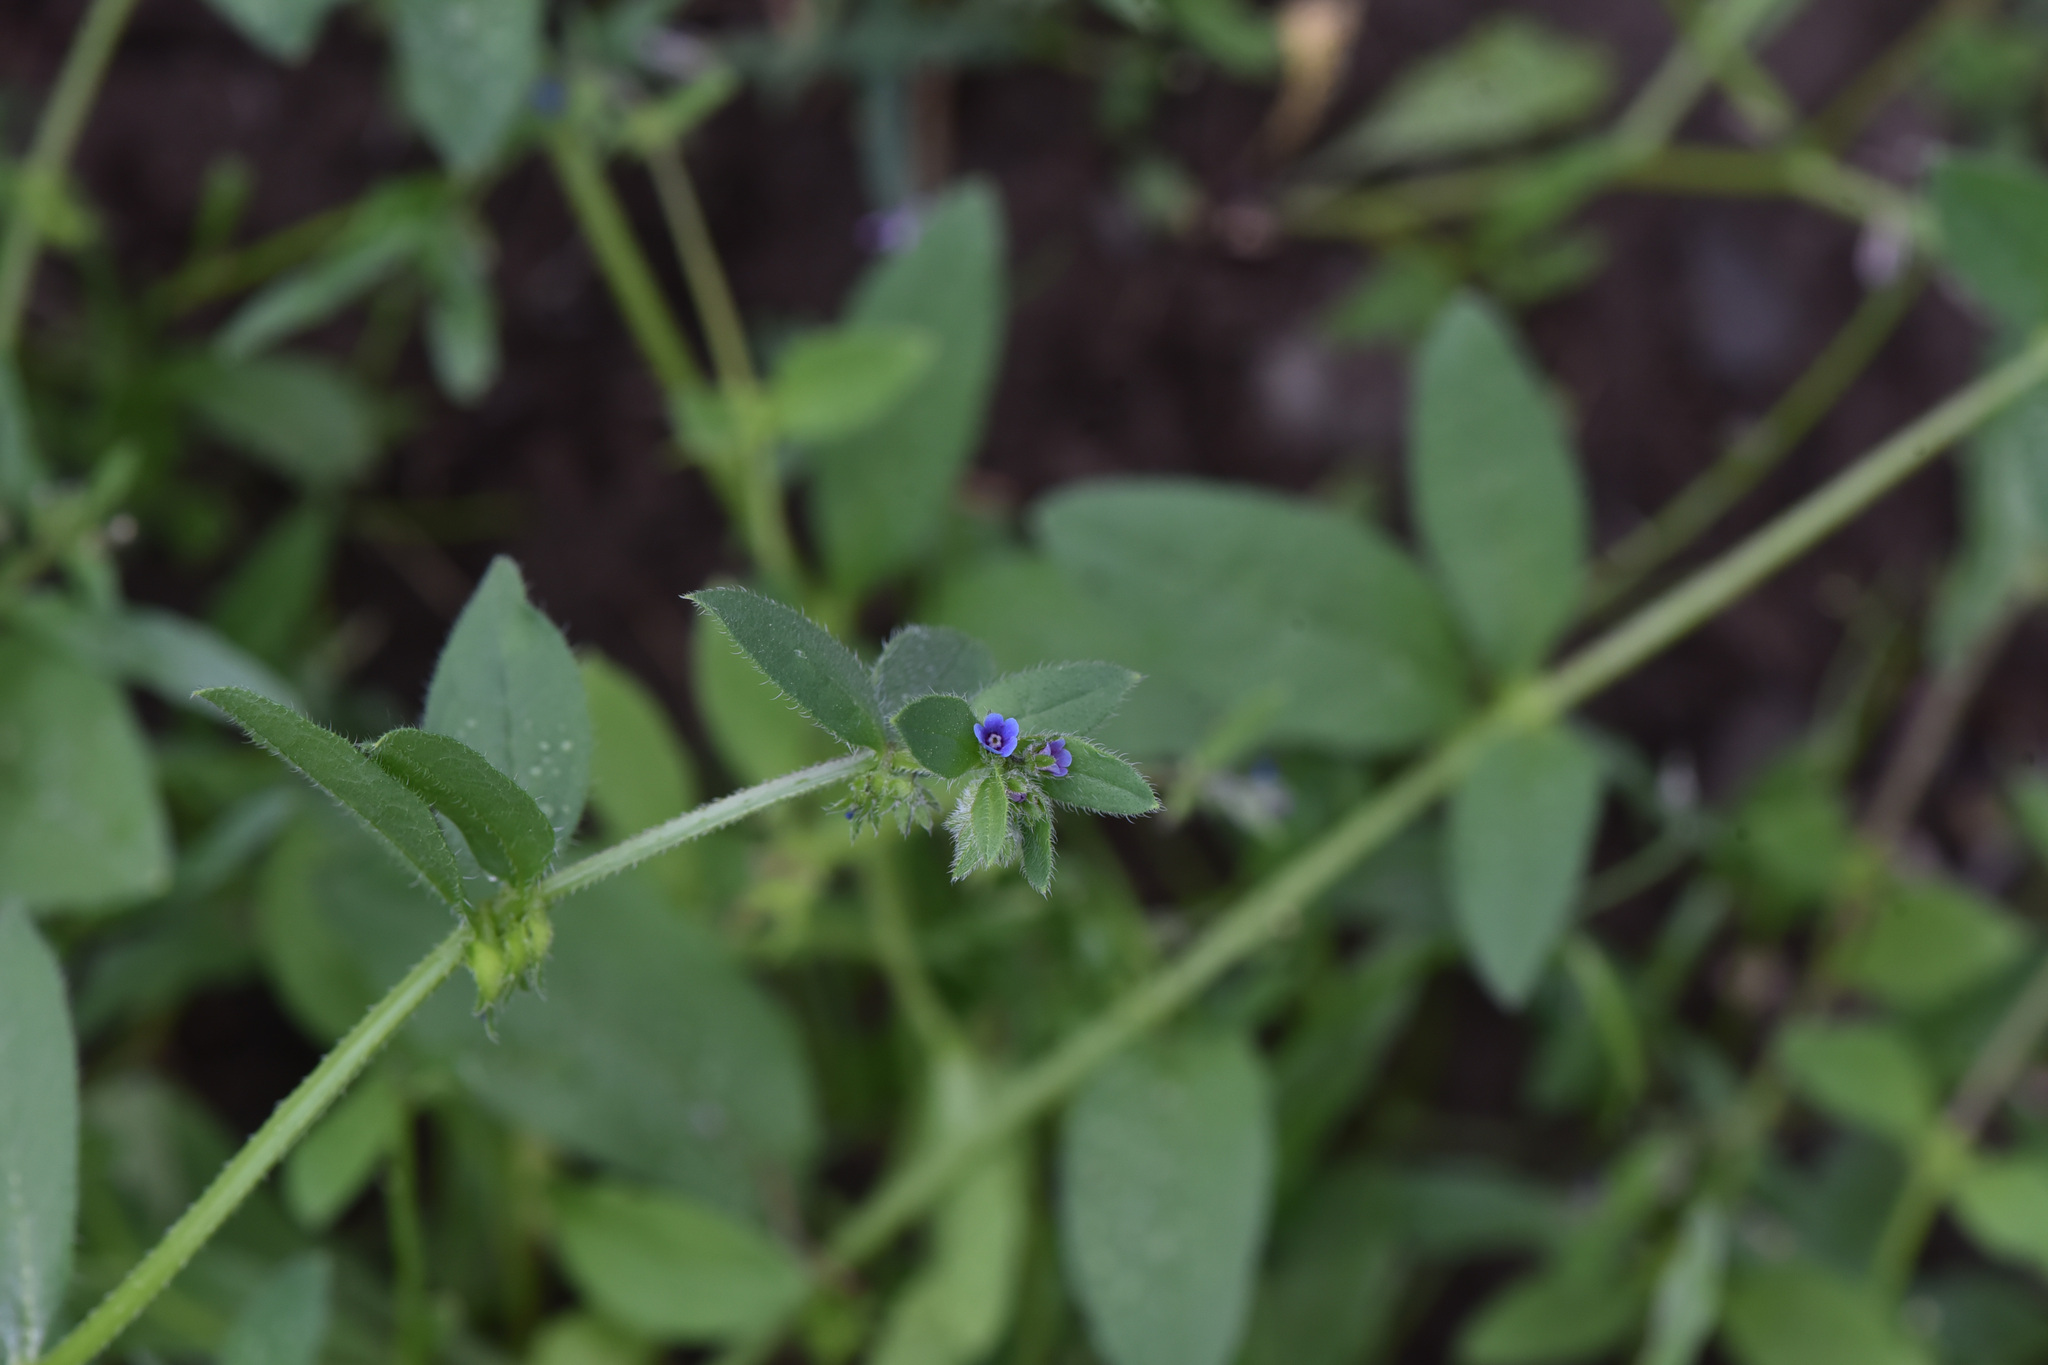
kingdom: Plantae
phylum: Tracheophyta
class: Magnoliopsida
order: Boraginales
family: Boraginaceae
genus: Asperugo
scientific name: Asperugo procumbens
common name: Madwort
